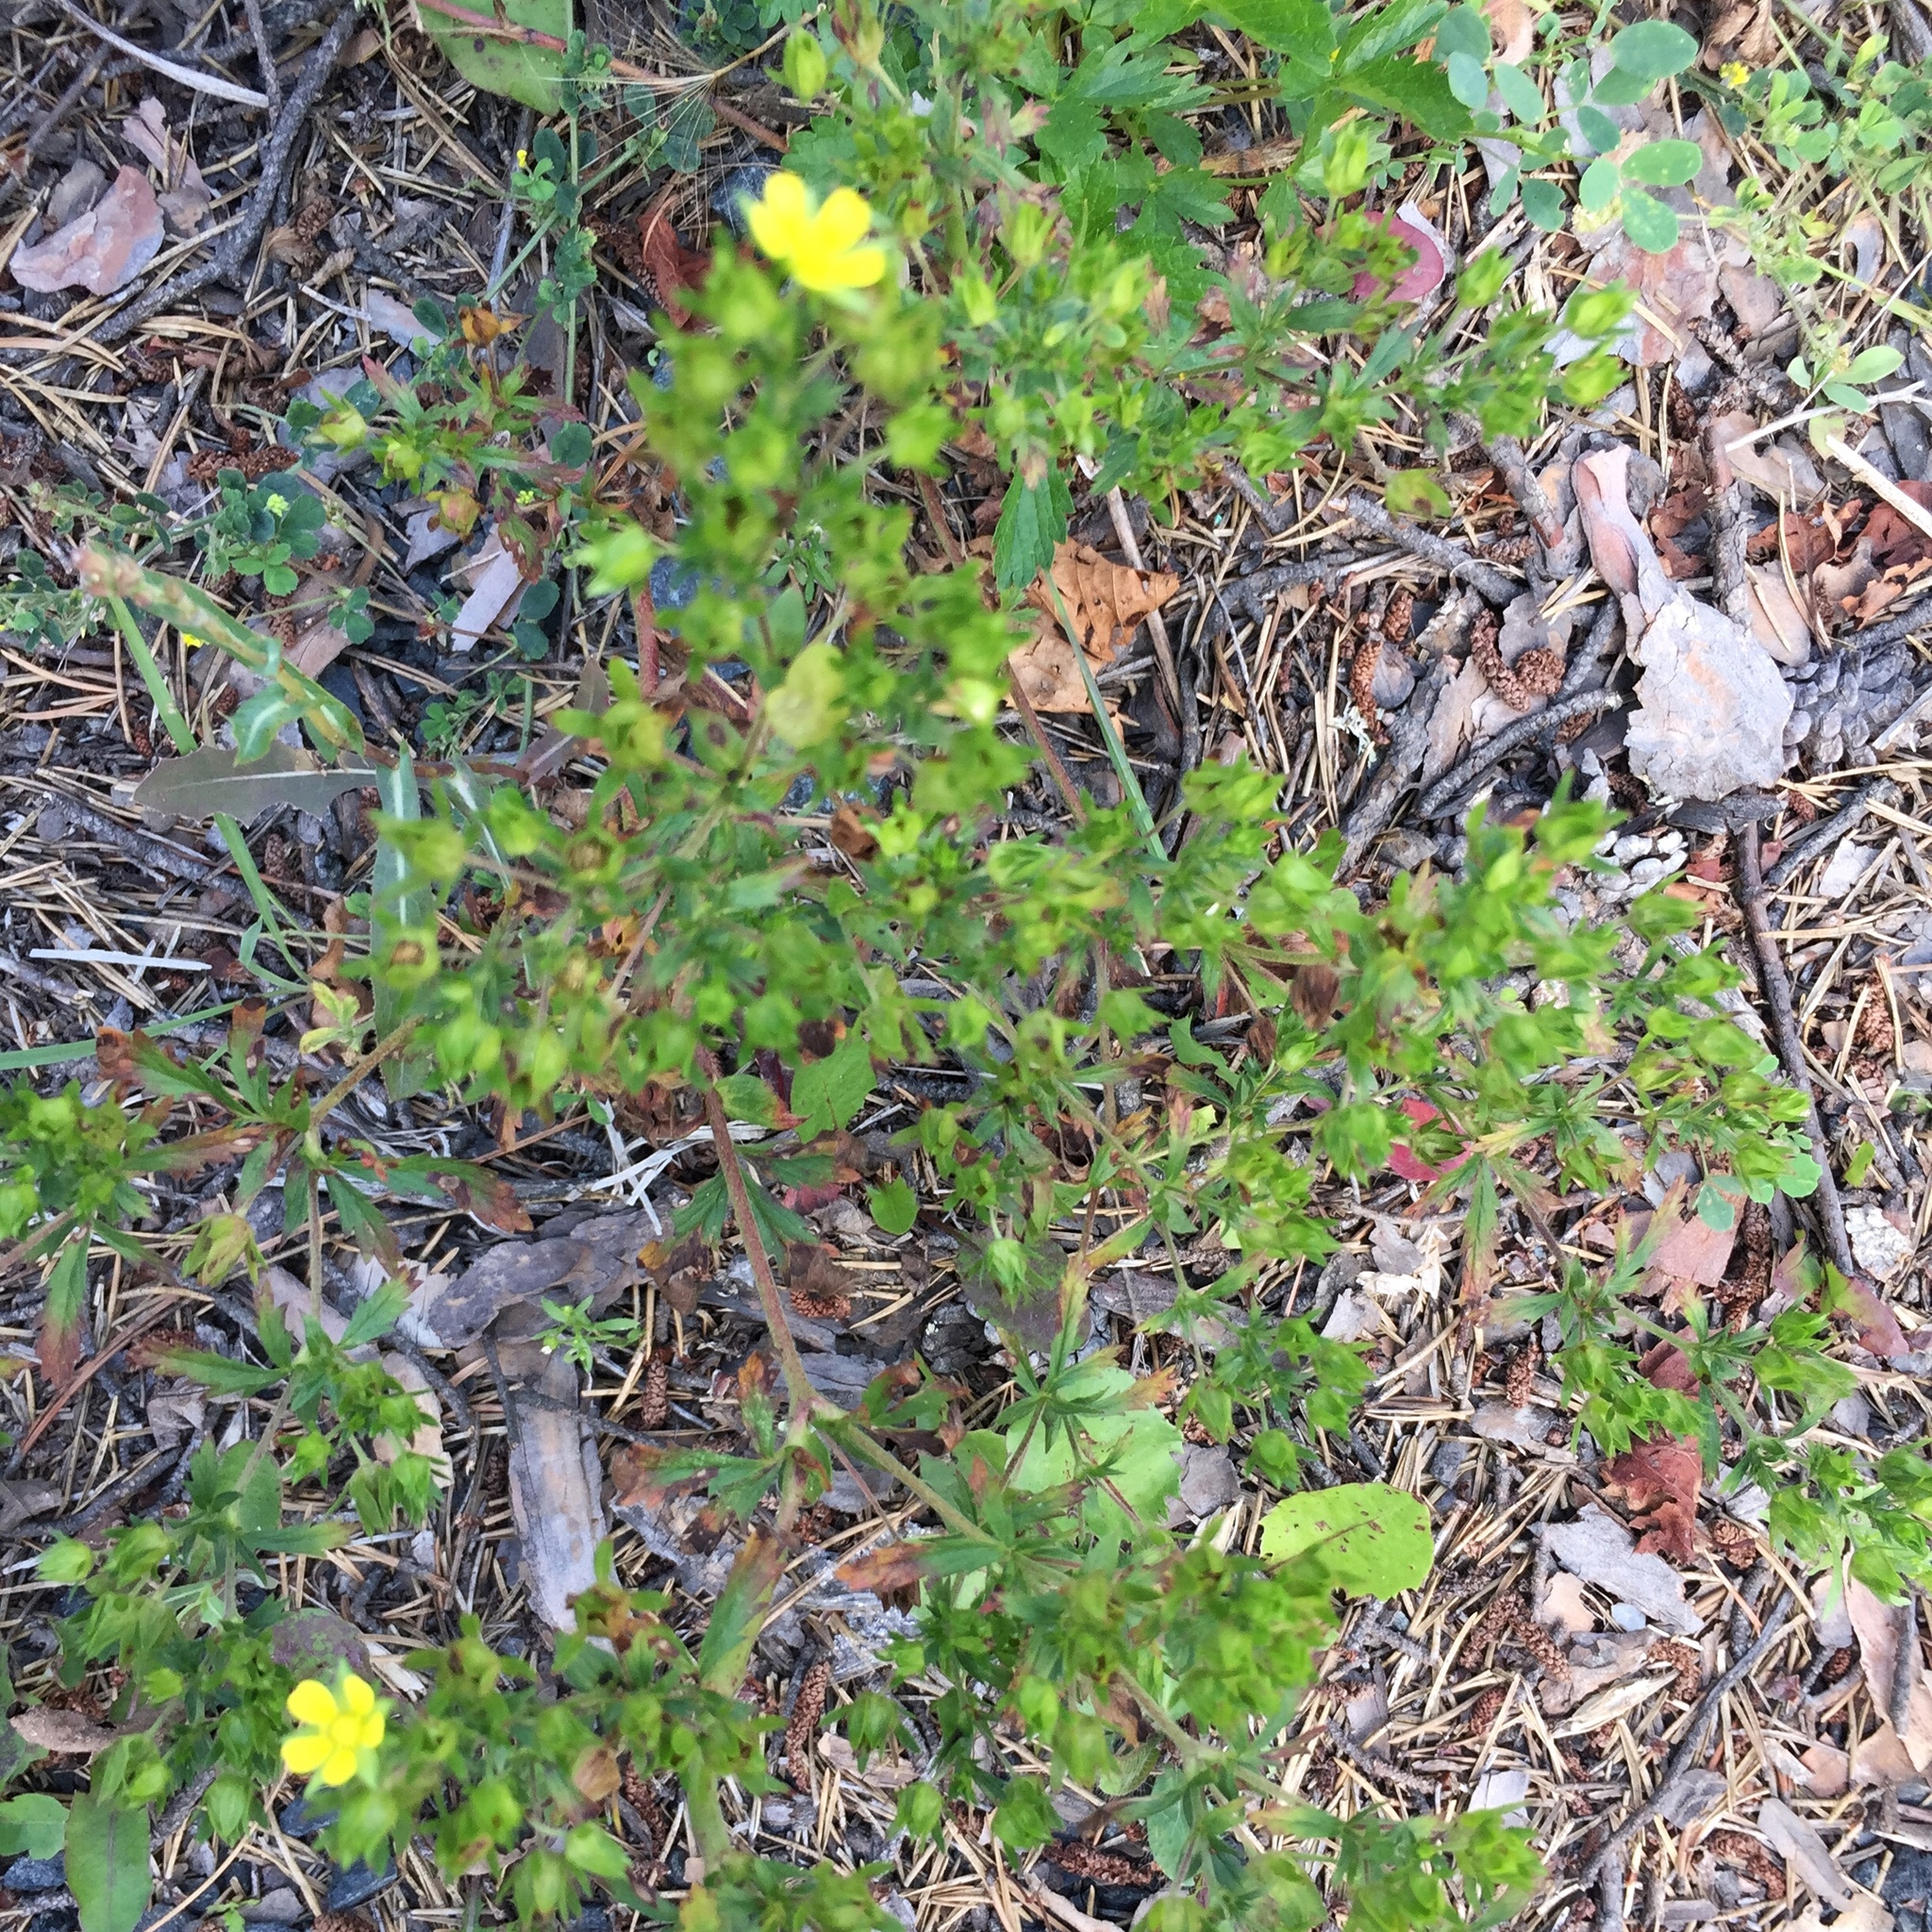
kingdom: Plantae
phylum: Tracheophyta
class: Magnoliopsida
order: Rosales
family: Rosaceae
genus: Potentilla
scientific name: Potentilla norvegica
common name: Ternate-leaved cinquefoil
